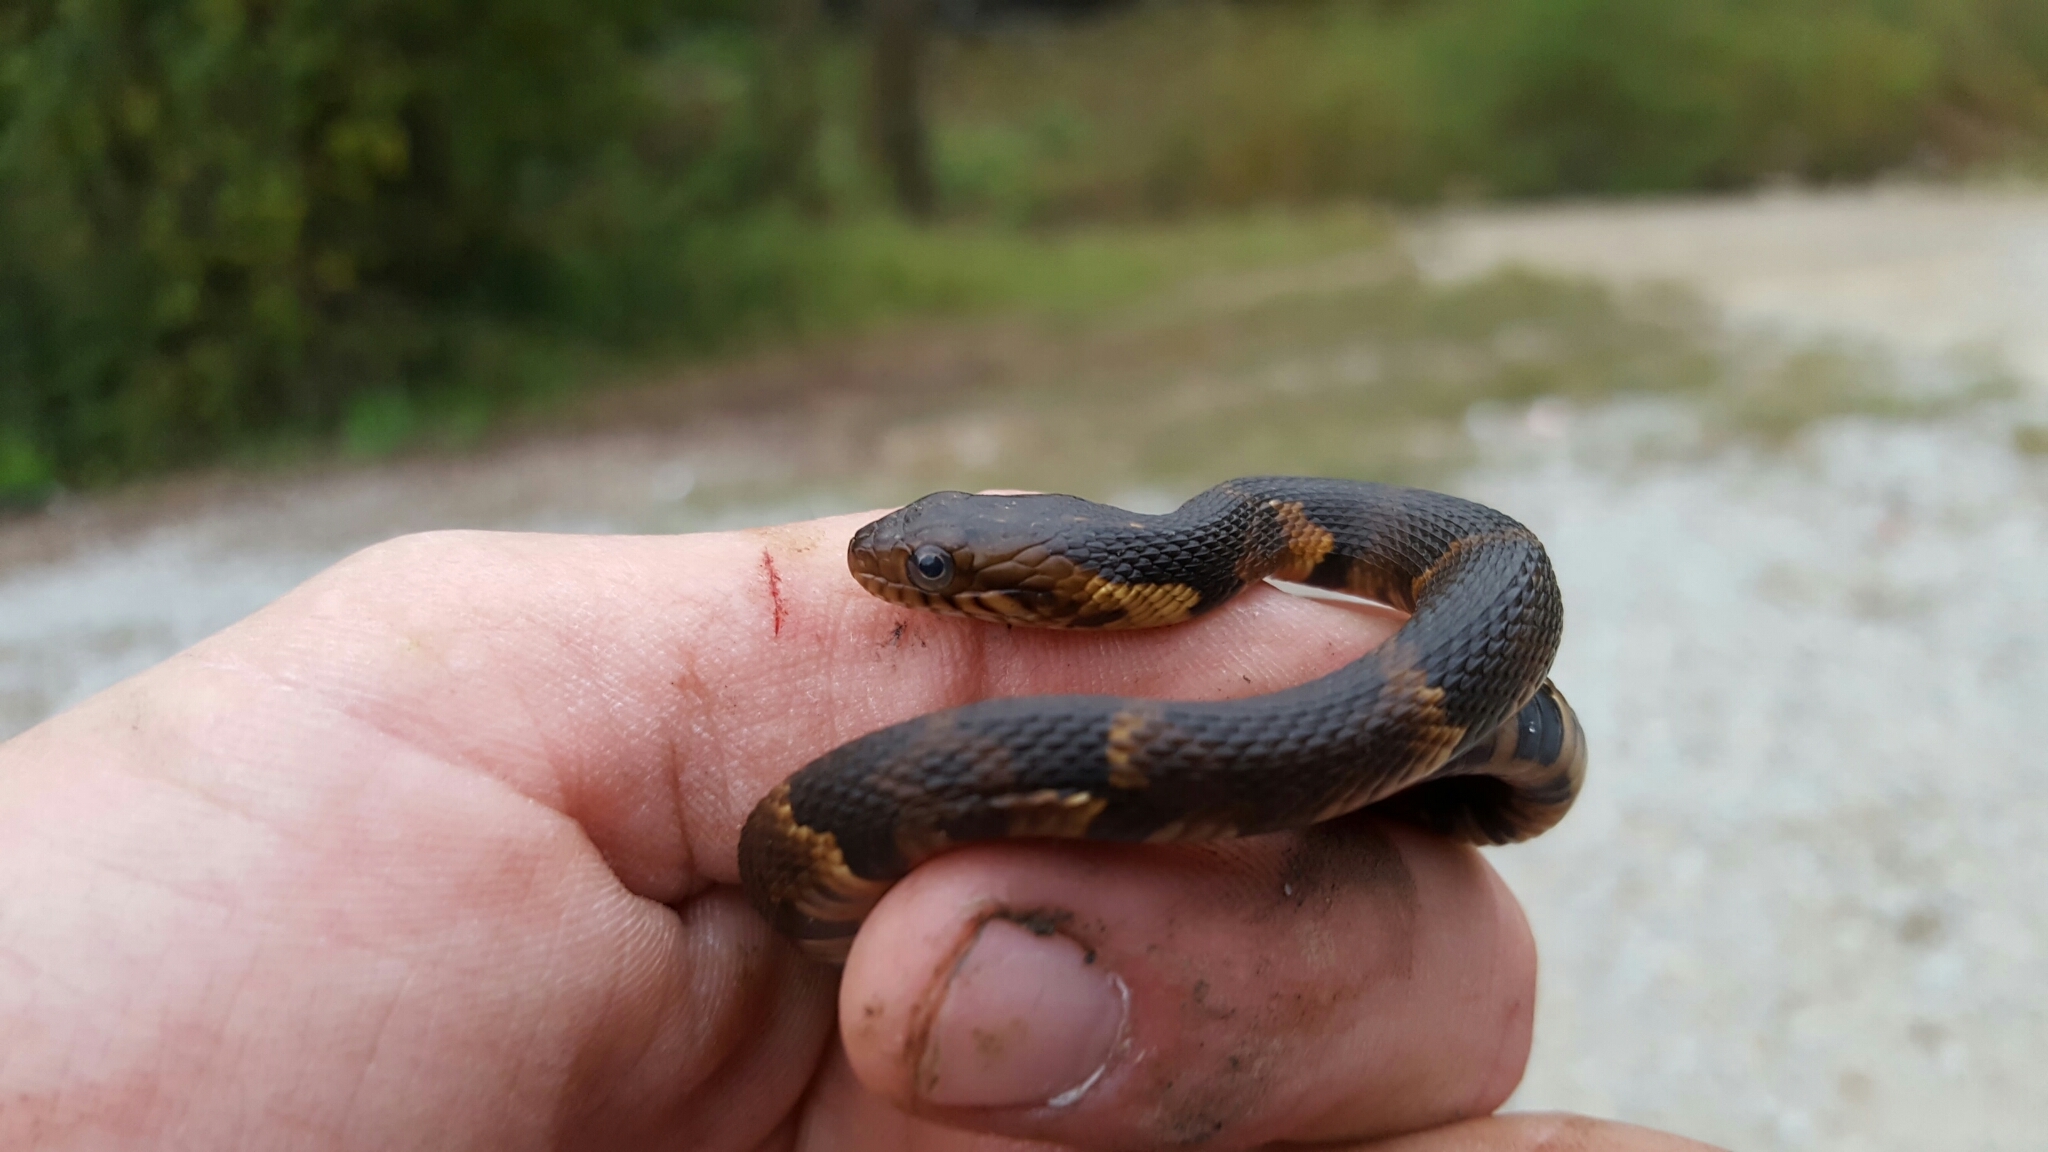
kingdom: Animalia
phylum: Chordata
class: Squamata
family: Colubridae
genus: Nerodia
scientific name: Nerodia fasciata
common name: Southern water snake
